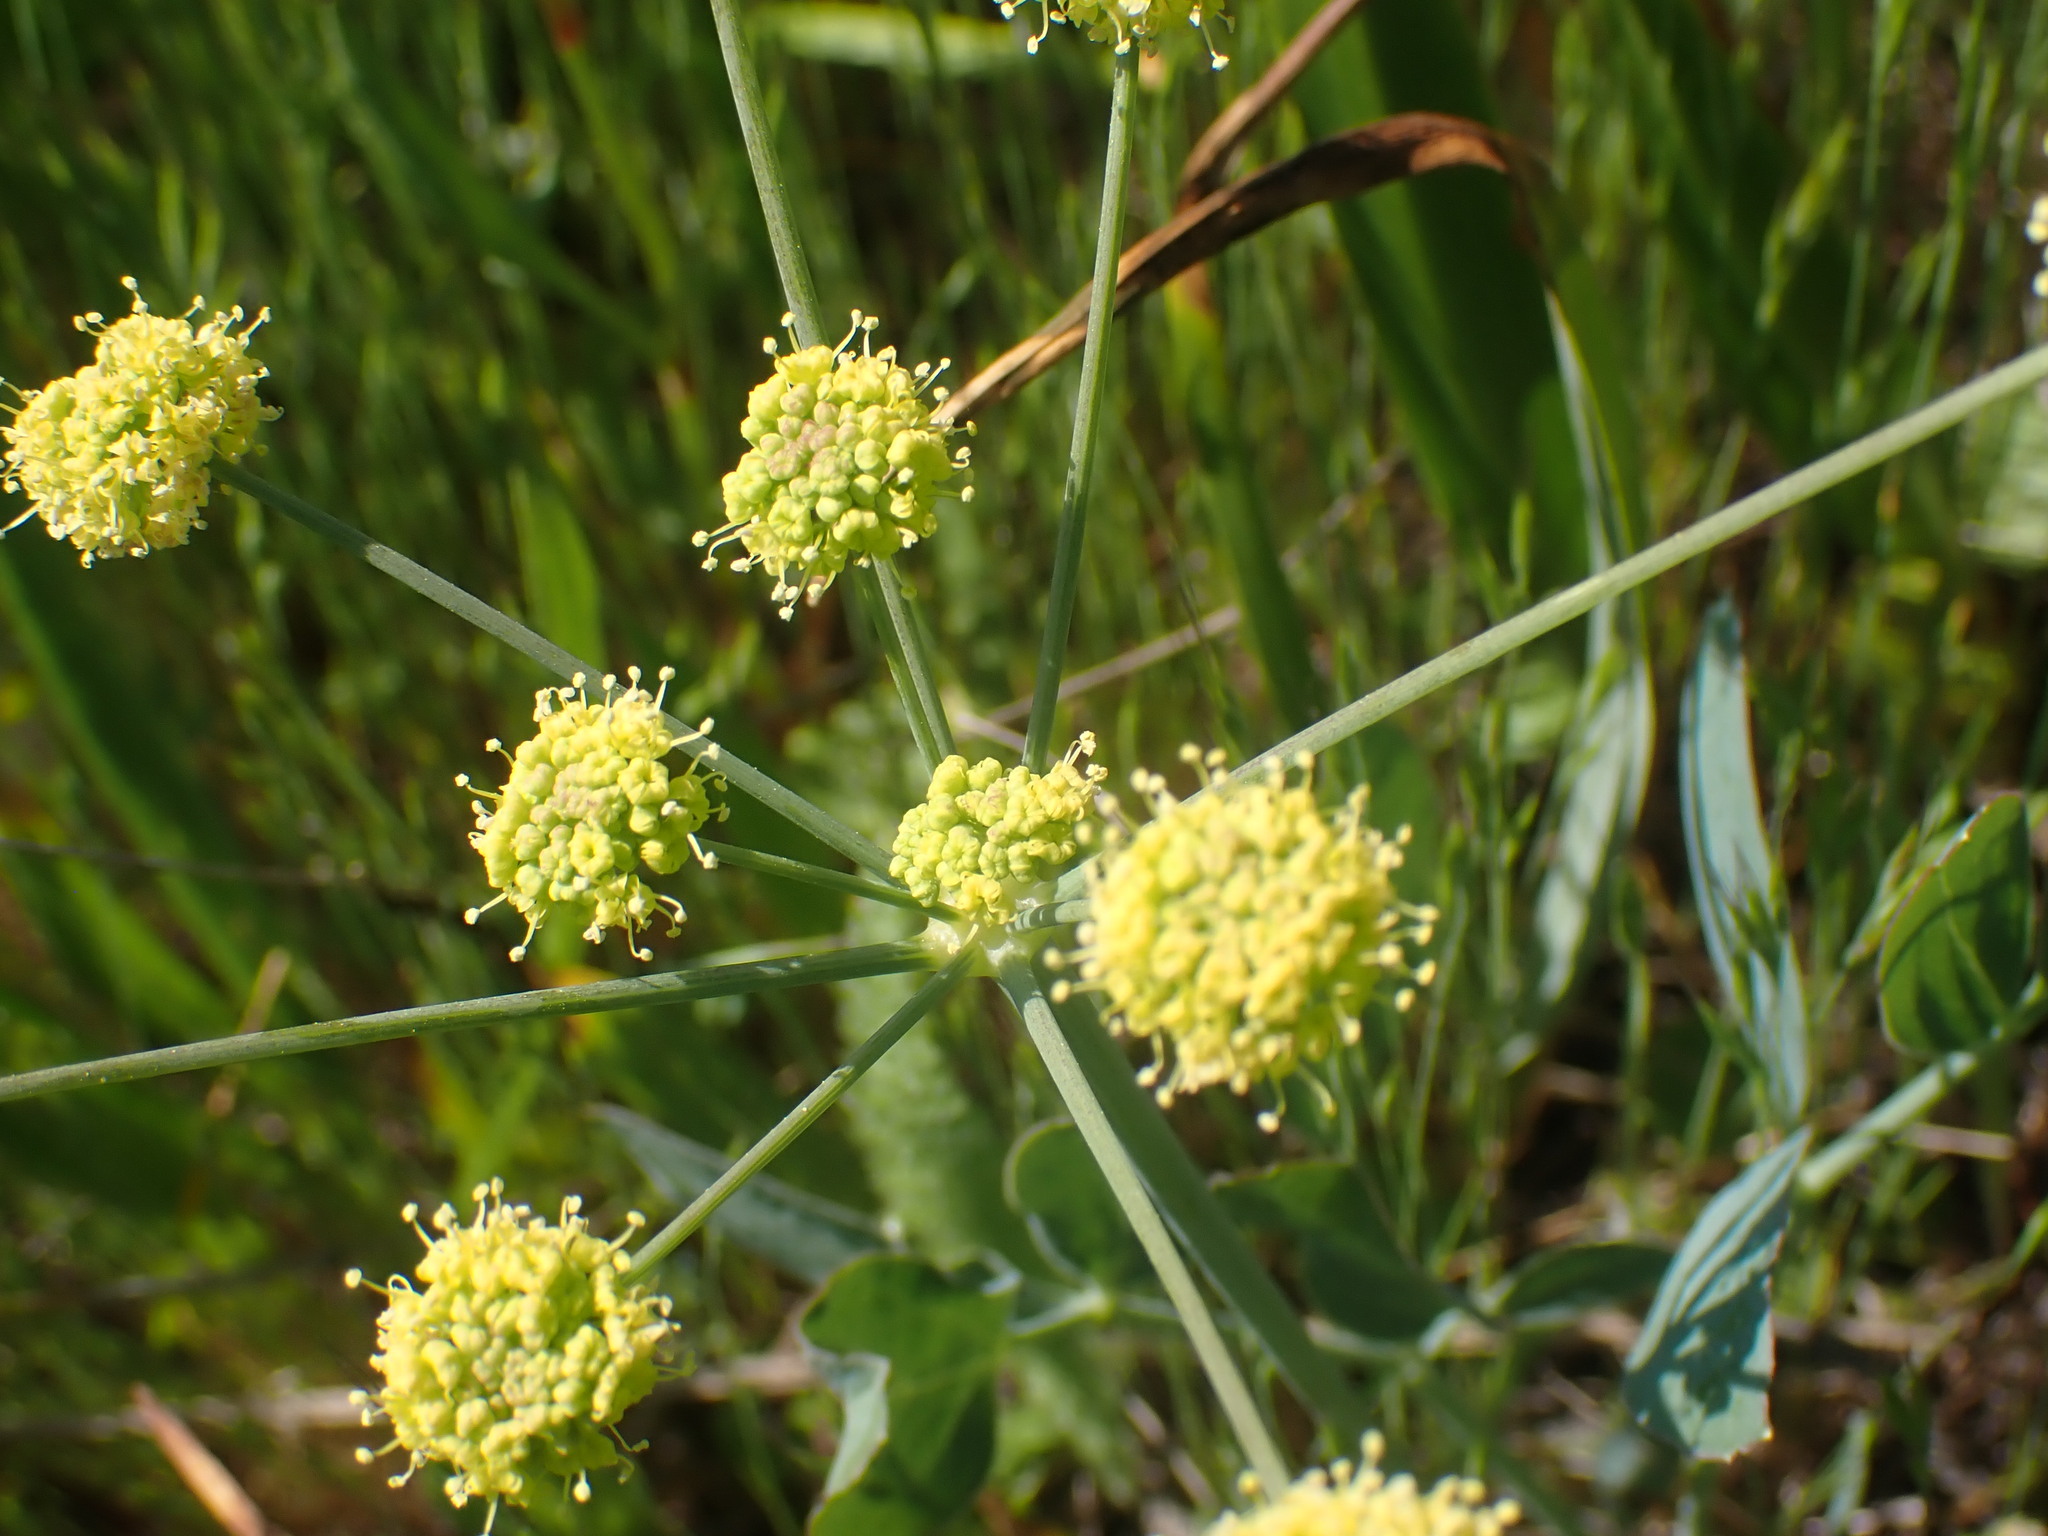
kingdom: Plantae
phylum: Tracheophyta
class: Magnoliopsida
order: Apiales
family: Apiaceae
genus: Lomatium
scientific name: Lomatium nudicaule
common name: Pestle lomatium
